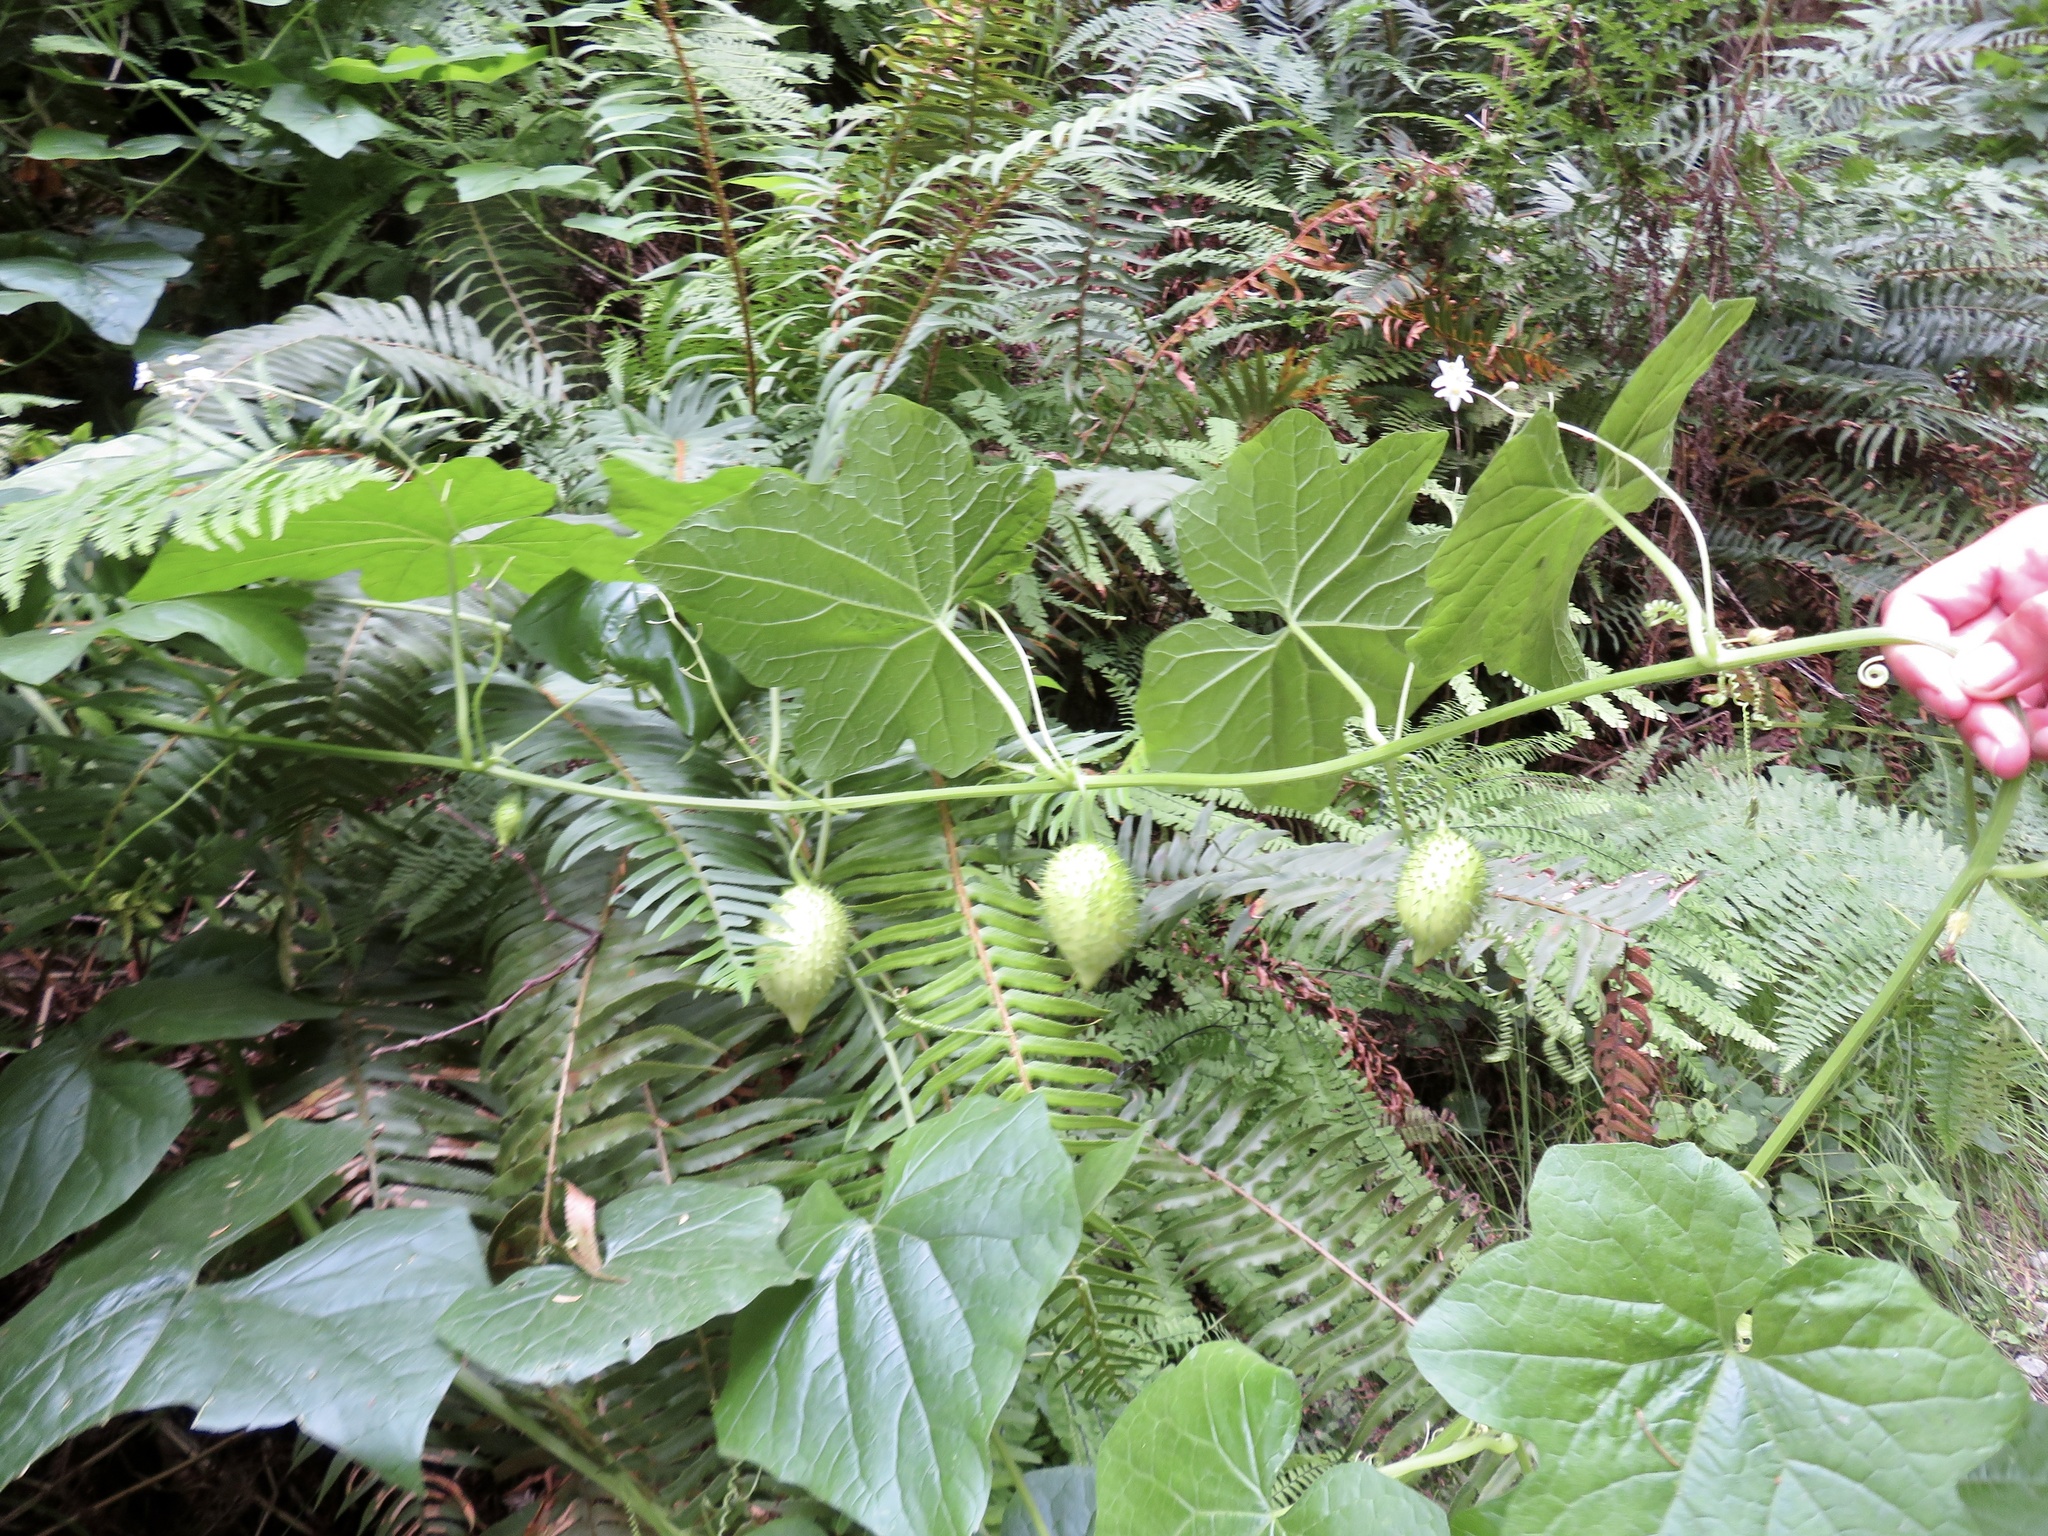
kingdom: Plantae
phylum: Tracheophyta
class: Magnoliopsida
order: Cucurbitales
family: Cucurbitaceae
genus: Marah
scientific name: Marah oregana
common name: Coastal manroot
